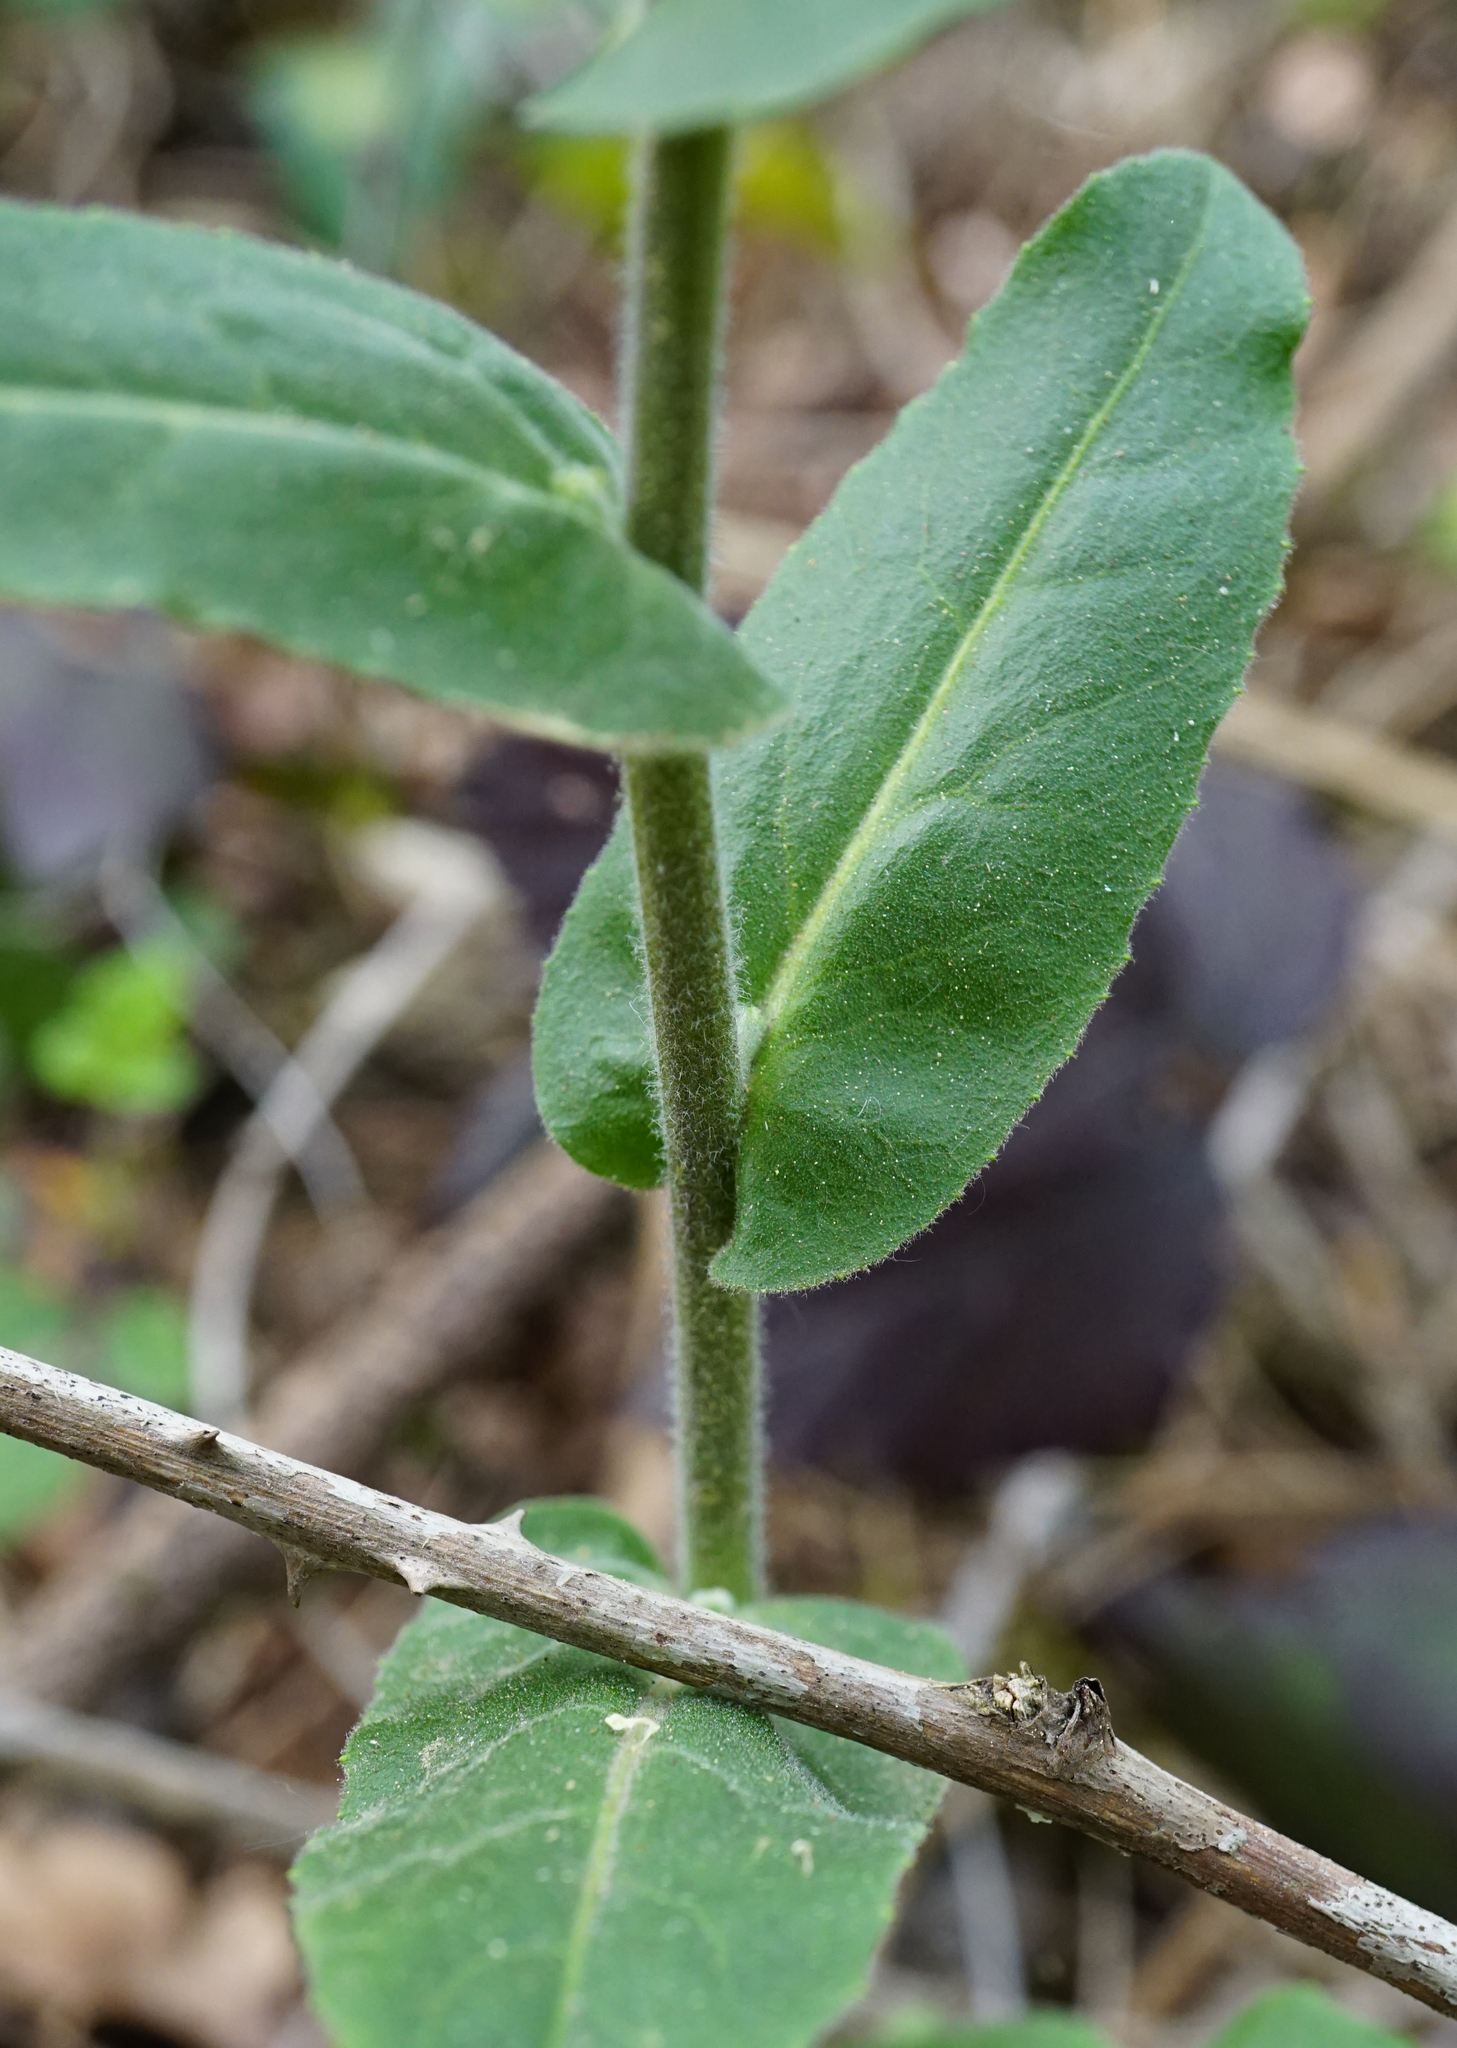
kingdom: Plantae
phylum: Tracheophyta
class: Magnoliopsida
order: Brassicales
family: Brassicaceae
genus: Pseudoturritis
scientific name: Pseudoturritis turrita
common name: Tower cress
